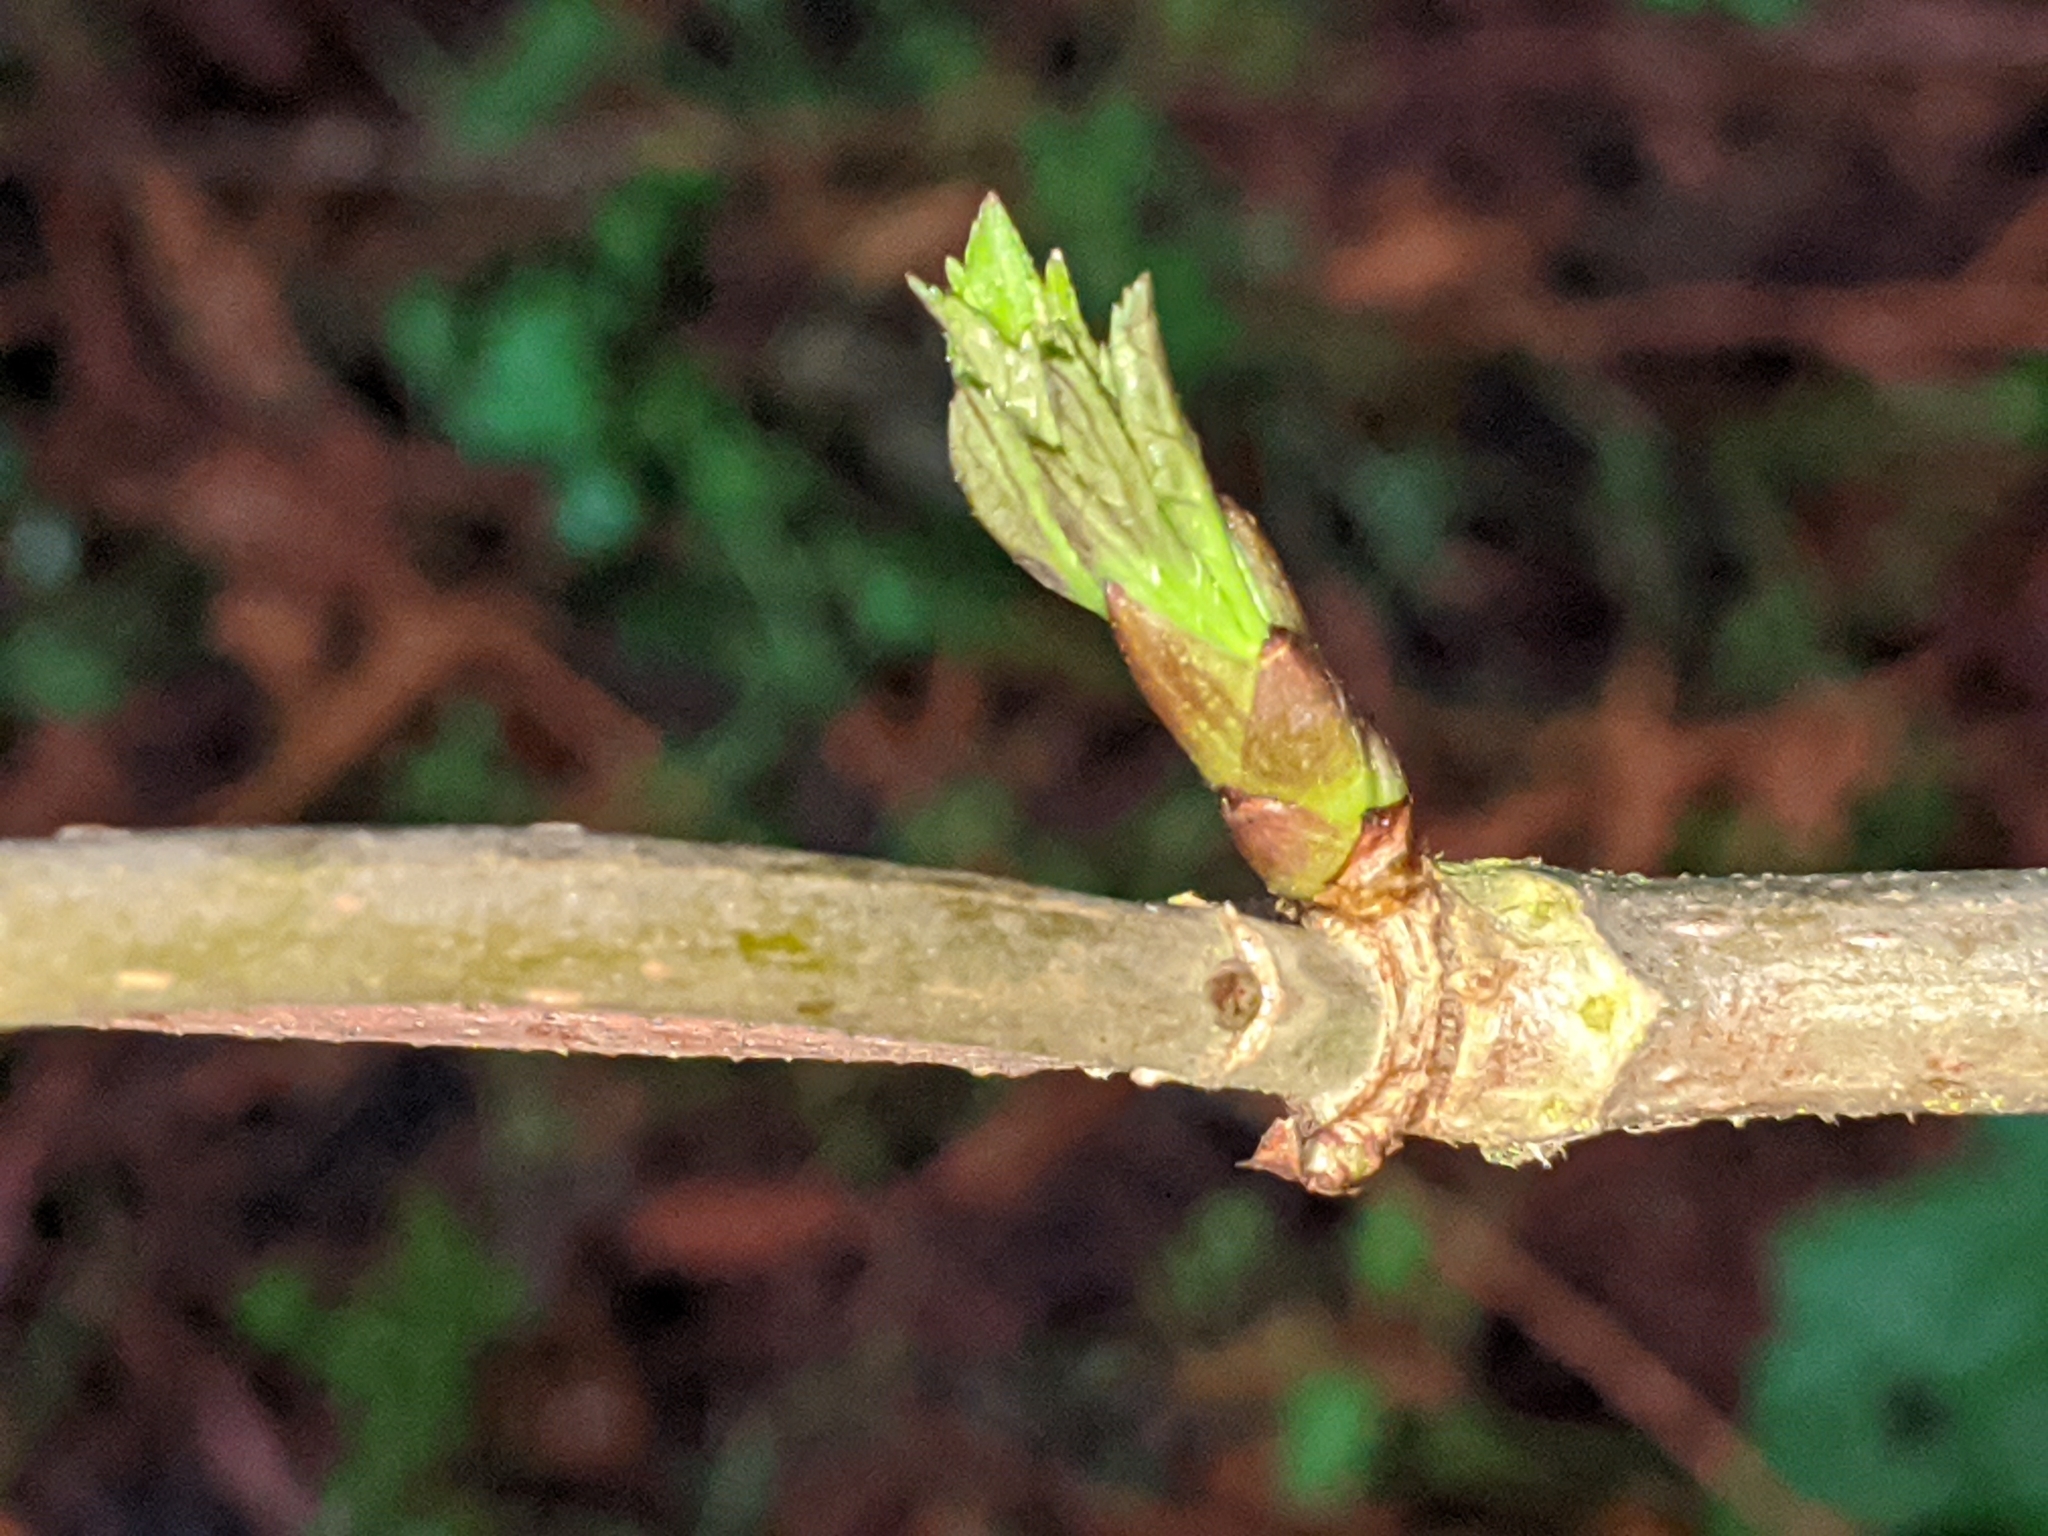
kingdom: Plantae
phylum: Tracheophyta
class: Magnoliopsida
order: Dipsacales
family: Viburnaceae
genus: Sambucus
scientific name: Sambucus racemosa
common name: Red-berried elder
